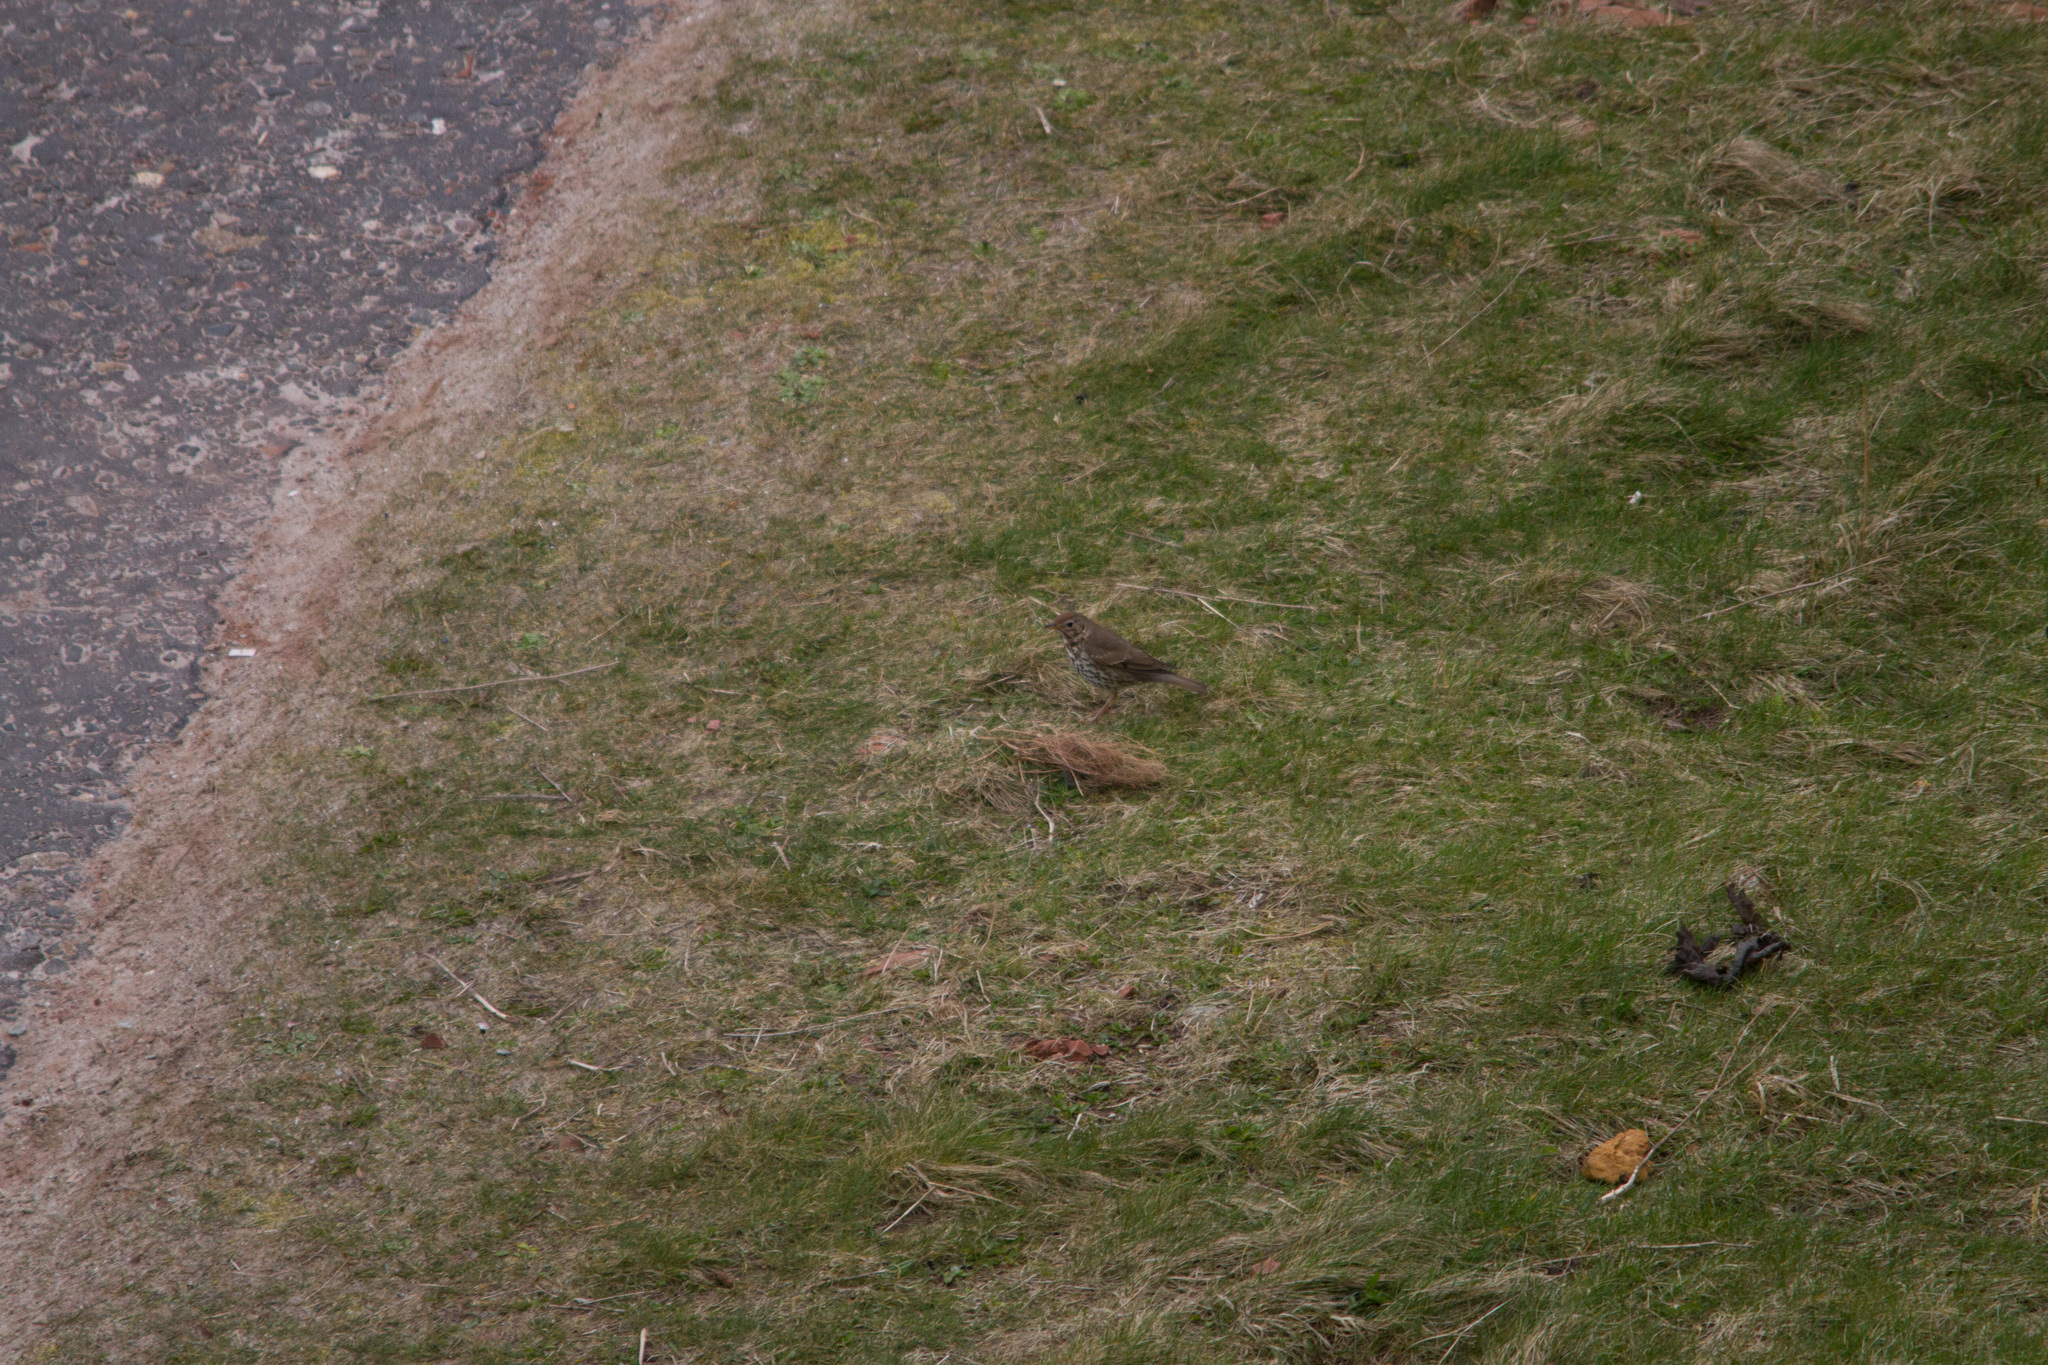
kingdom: Animalia
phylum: Chordata
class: Aves
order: Passeriformes
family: Turdidae
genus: Turdus
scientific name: Turdus philomelos
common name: Song thrush
